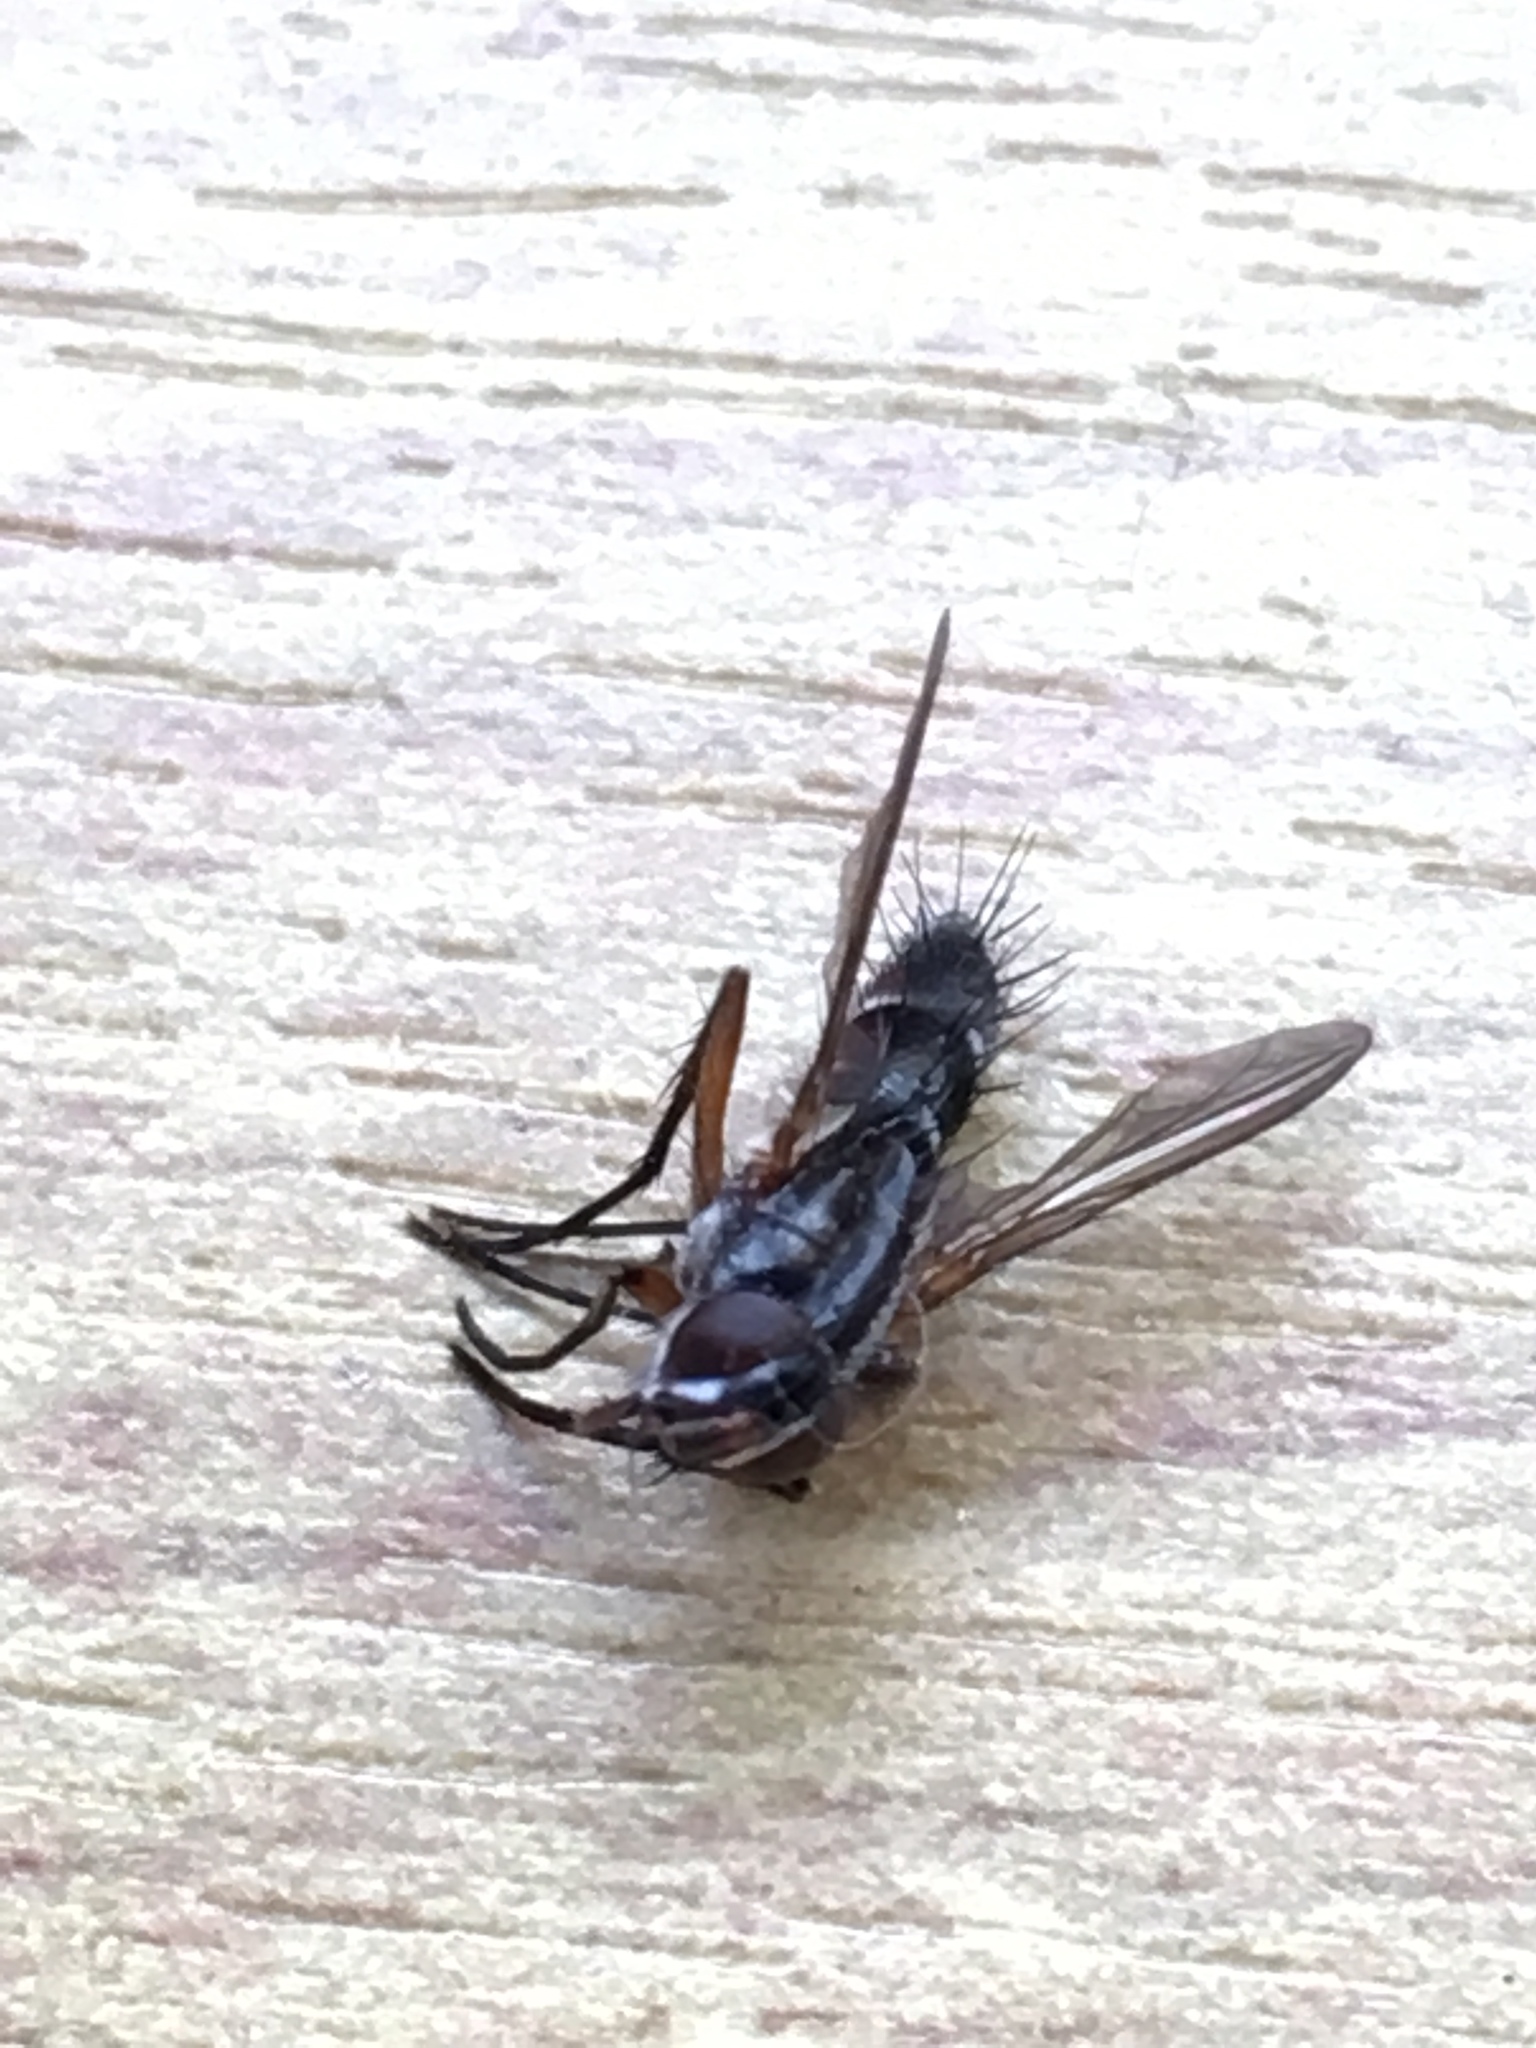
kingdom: Animalia
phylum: Arthropoda
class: Insecta
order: Diptera
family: Tachinidae
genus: Mintho
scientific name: Mintho rufiventris
